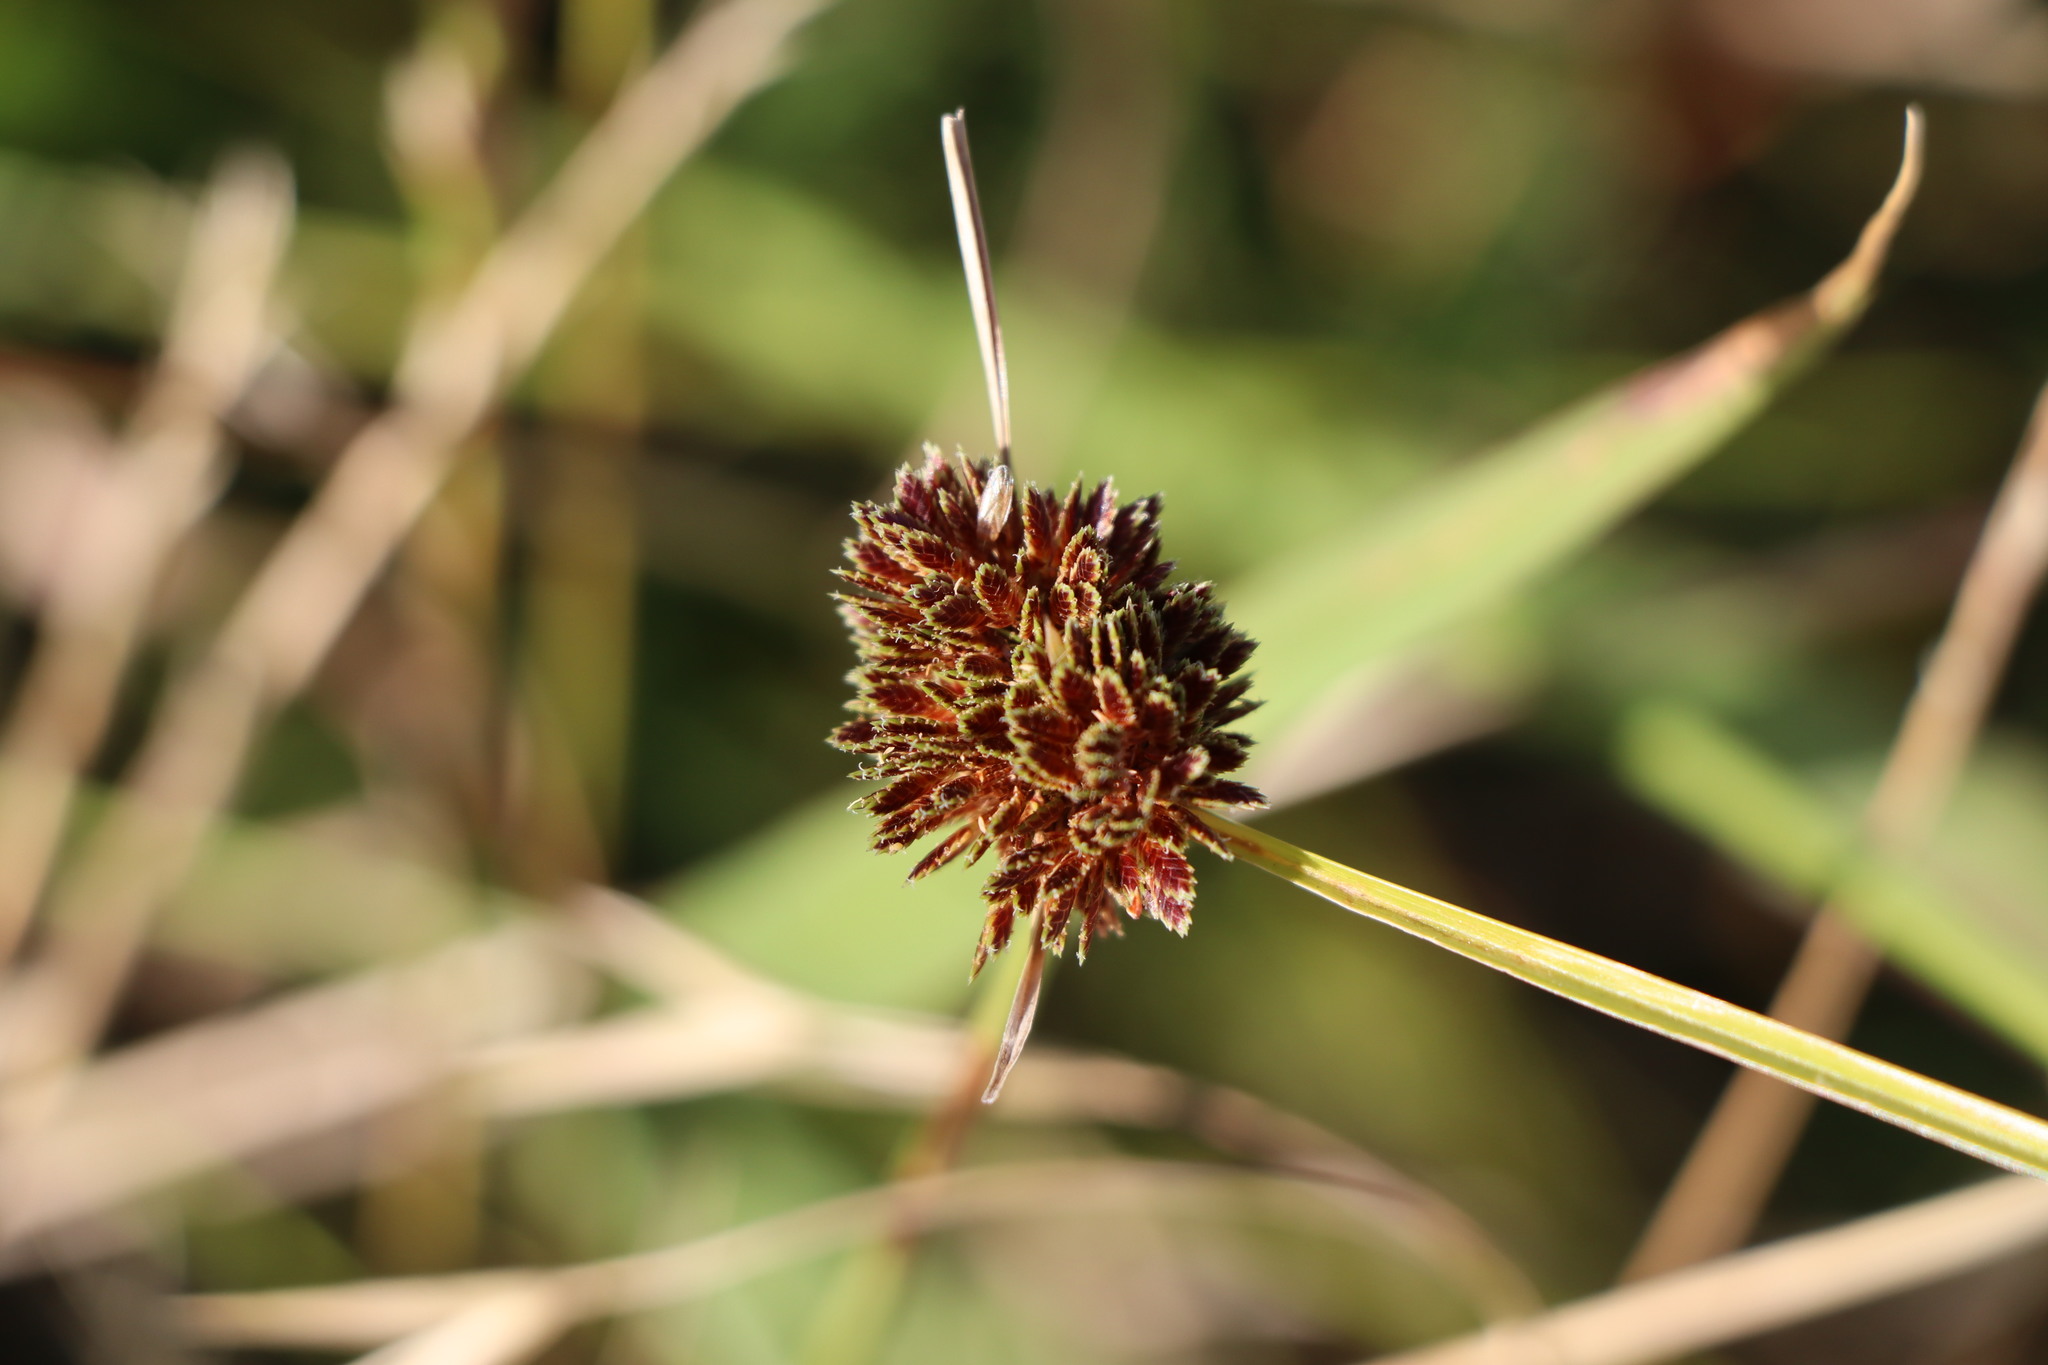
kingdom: Plantae
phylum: Tracheophyta
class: Liliopsida
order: Poales
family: Cyperaceae
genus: Cyperus
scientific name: Cyperus reflexus
